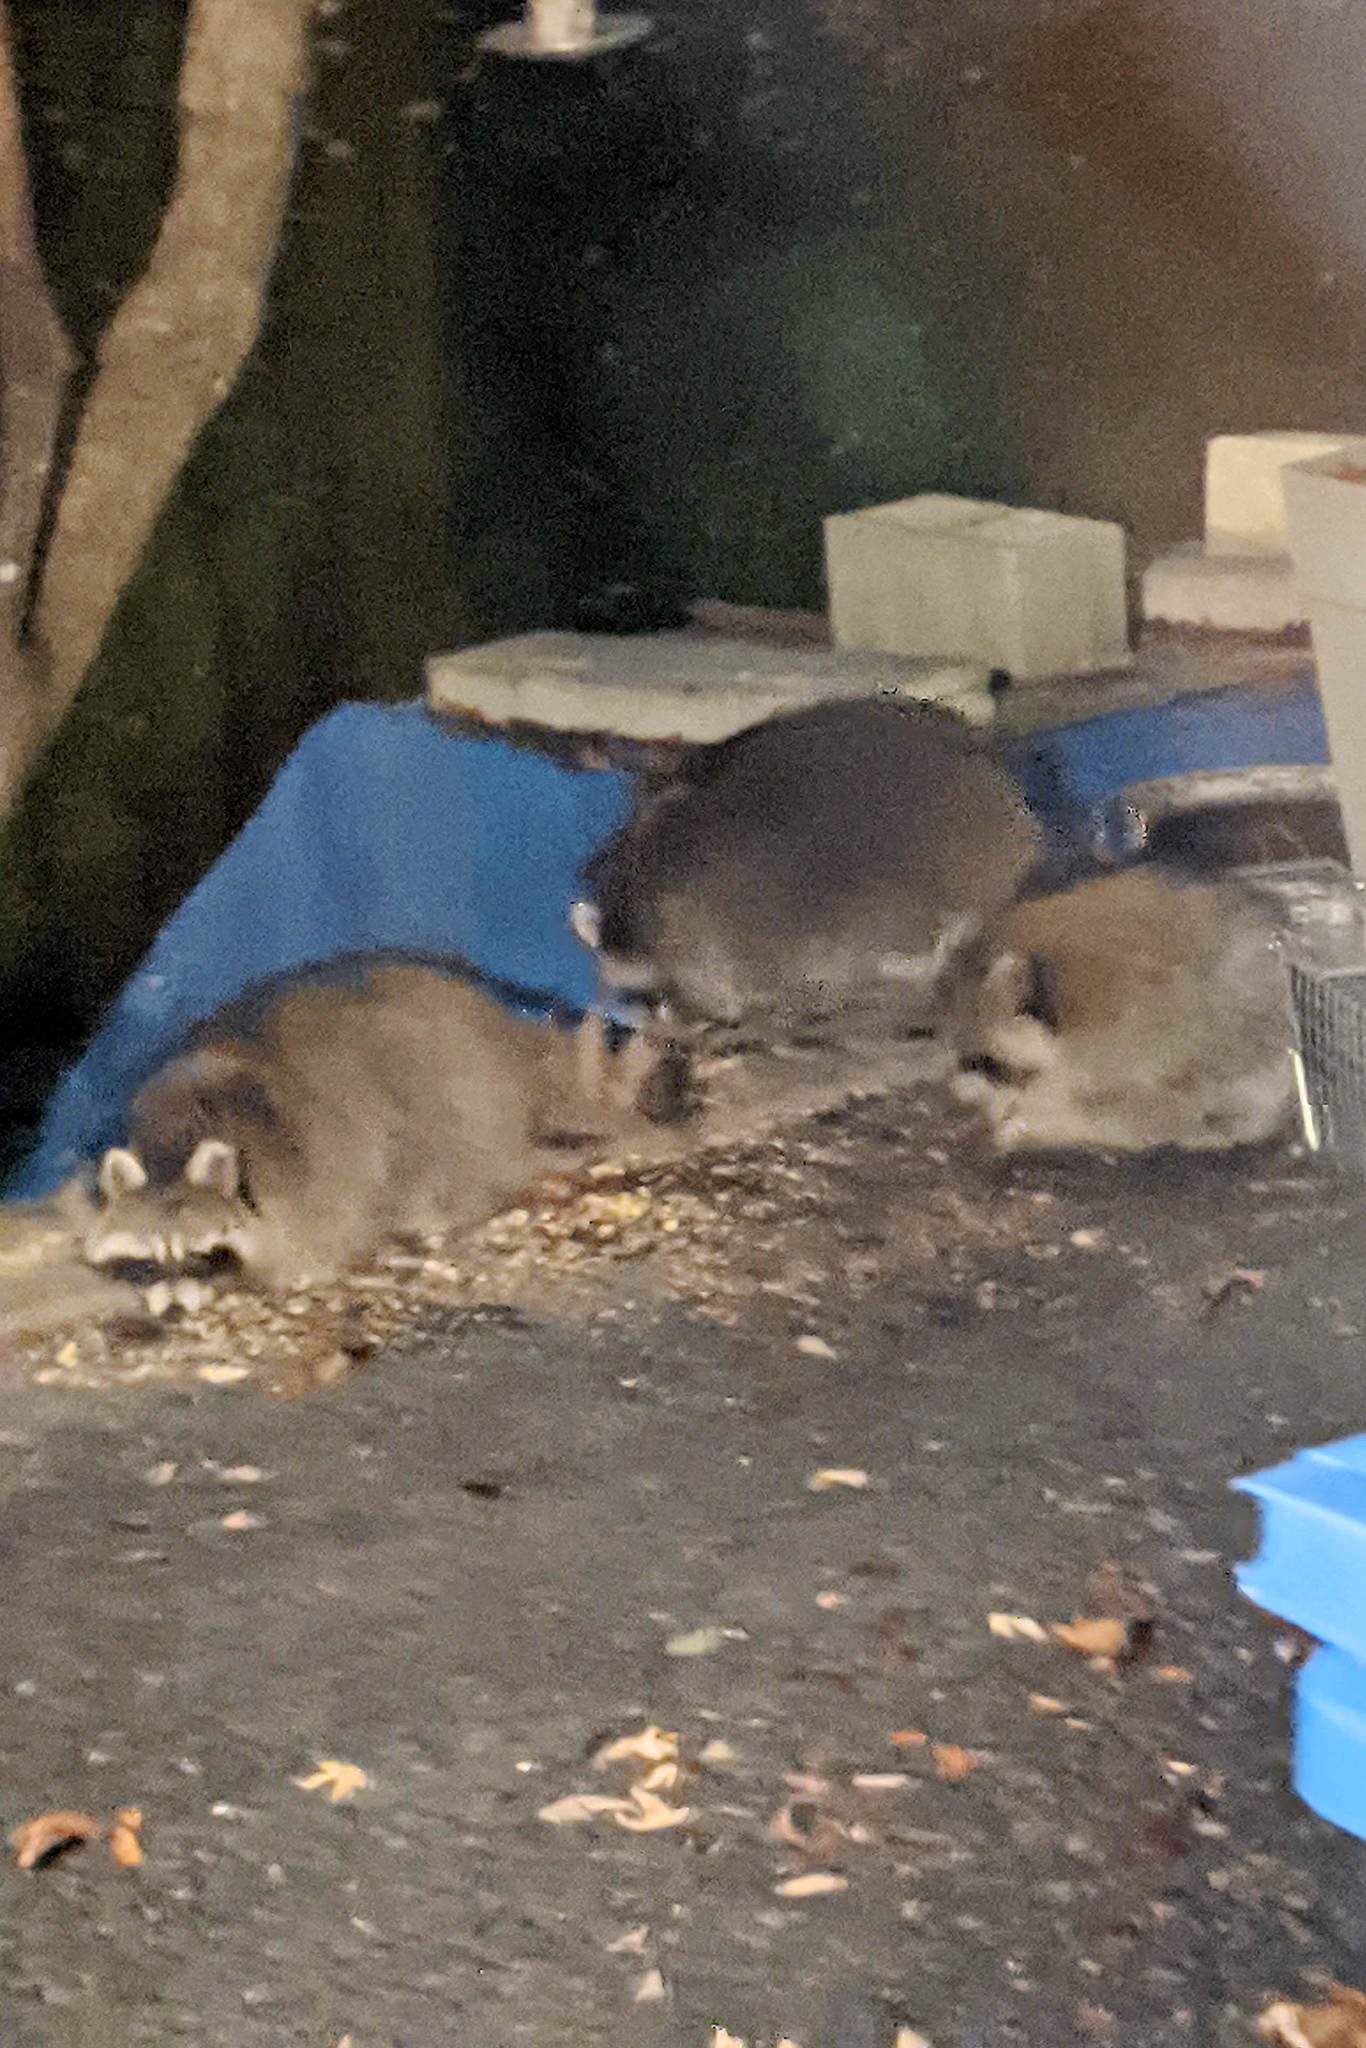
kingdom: Animalia
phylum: Chordata
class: Mammalia
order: Carnivora
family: Procyonidae
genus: Procyon
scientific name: Procyon lotor
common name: Raccoon
